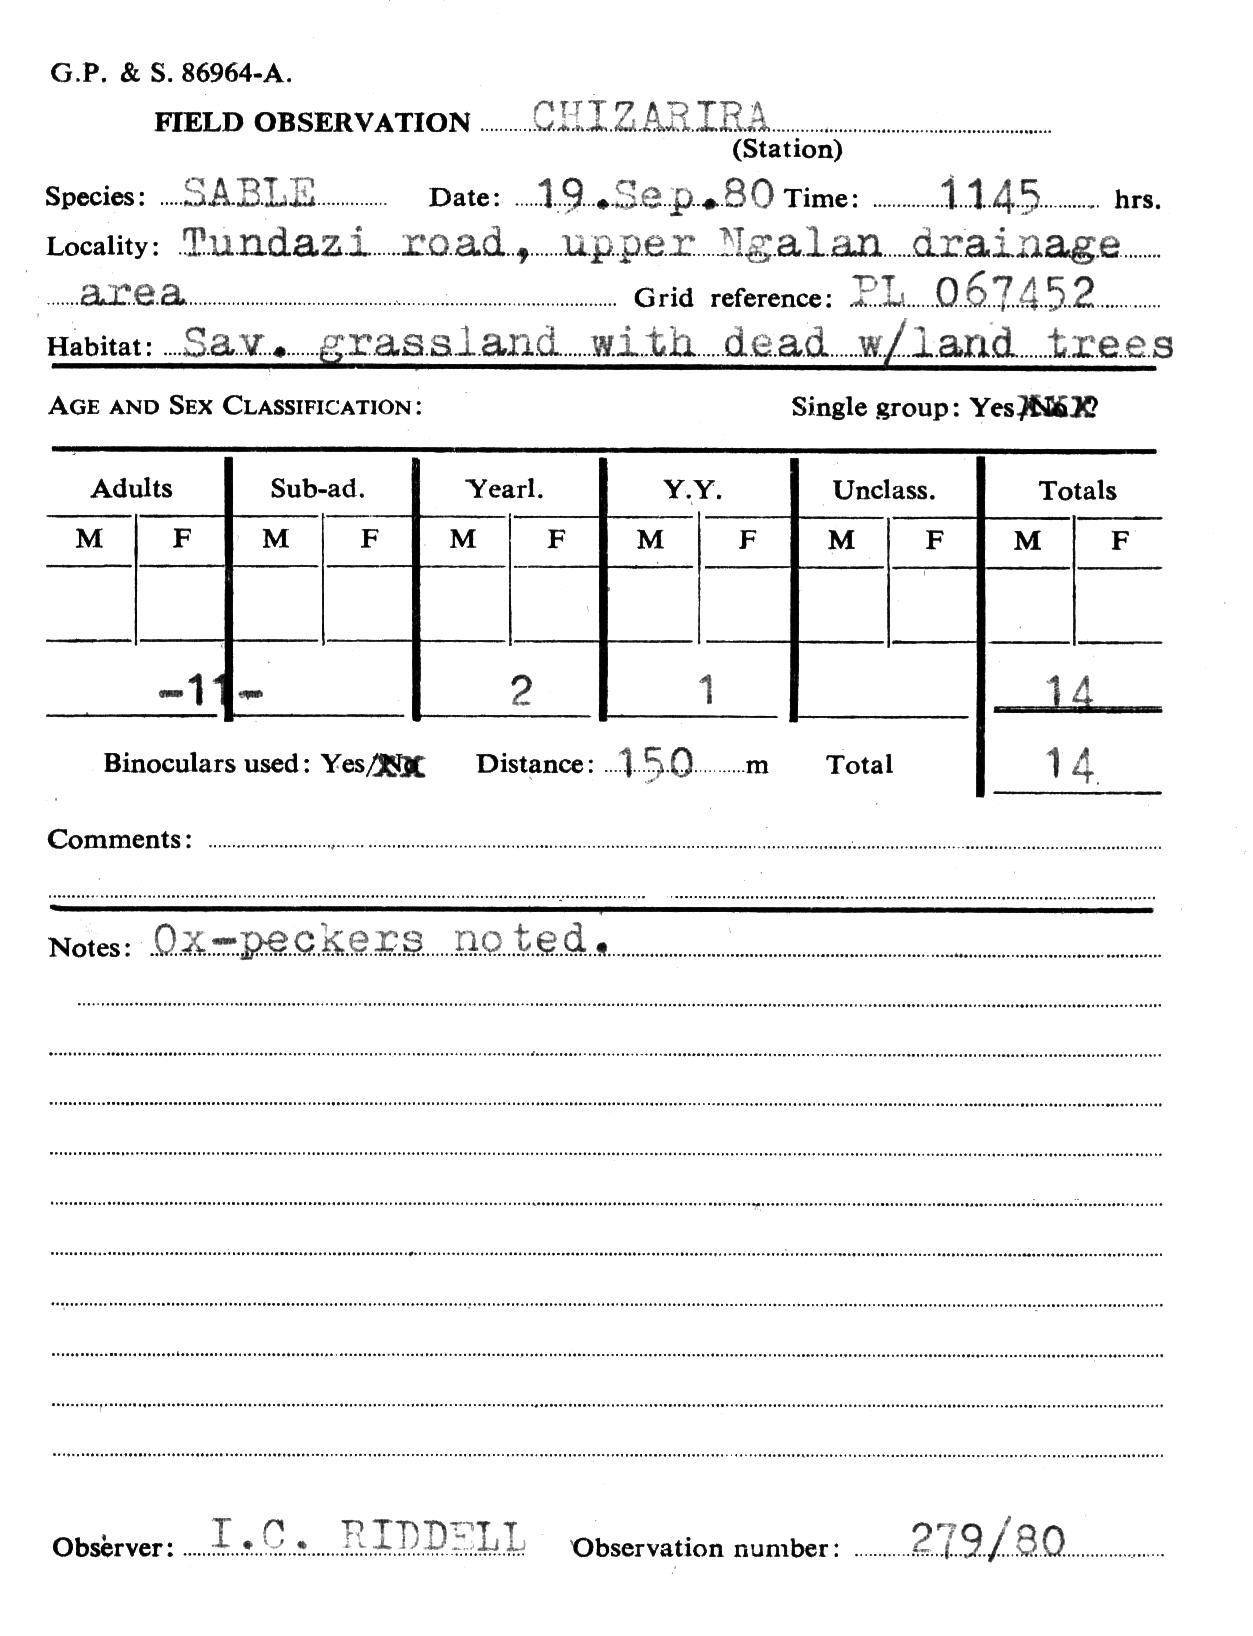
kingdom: Animalia
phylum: Chordata
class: Mammalia
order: Artiodactyla
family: Bovidae
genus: Hippotragus
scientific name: Hippotragus niger
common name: Sable antelope
